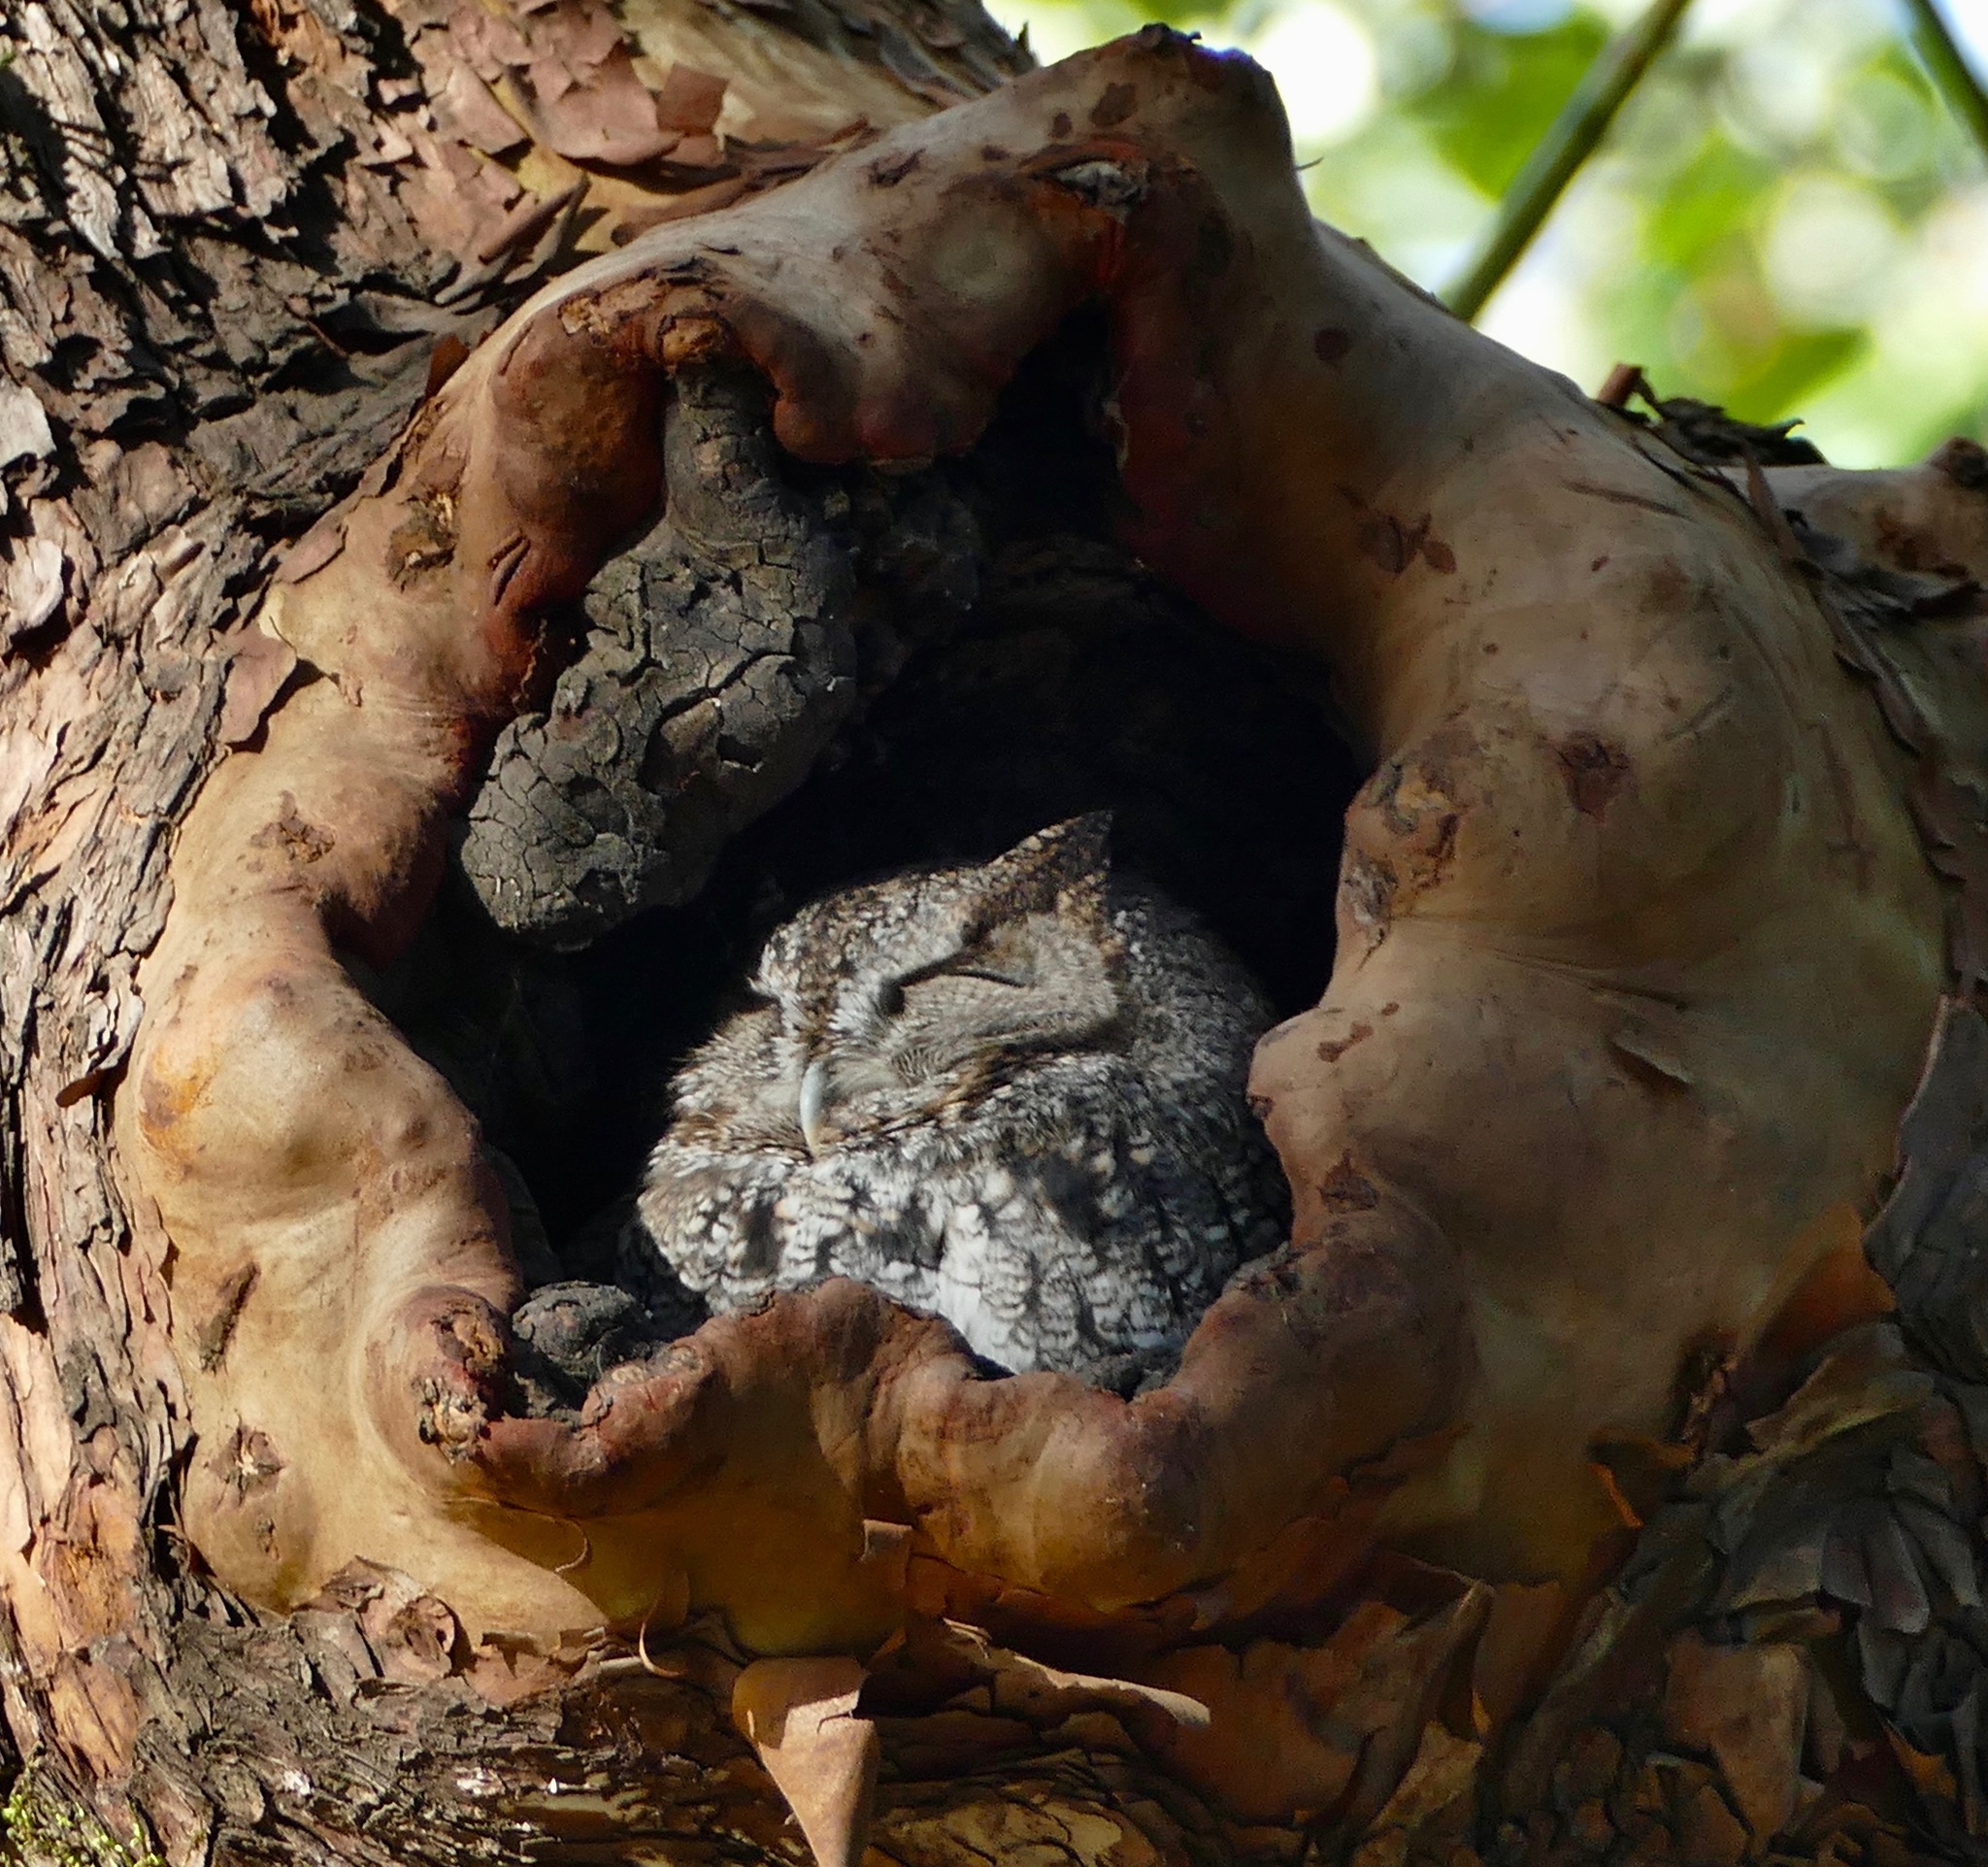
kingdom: Animalia
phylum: Chordata
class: Aves
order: Strigiformes
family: Strigidae
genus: Megascops
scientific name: Megascops kennicottii
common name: Western screech-owl
